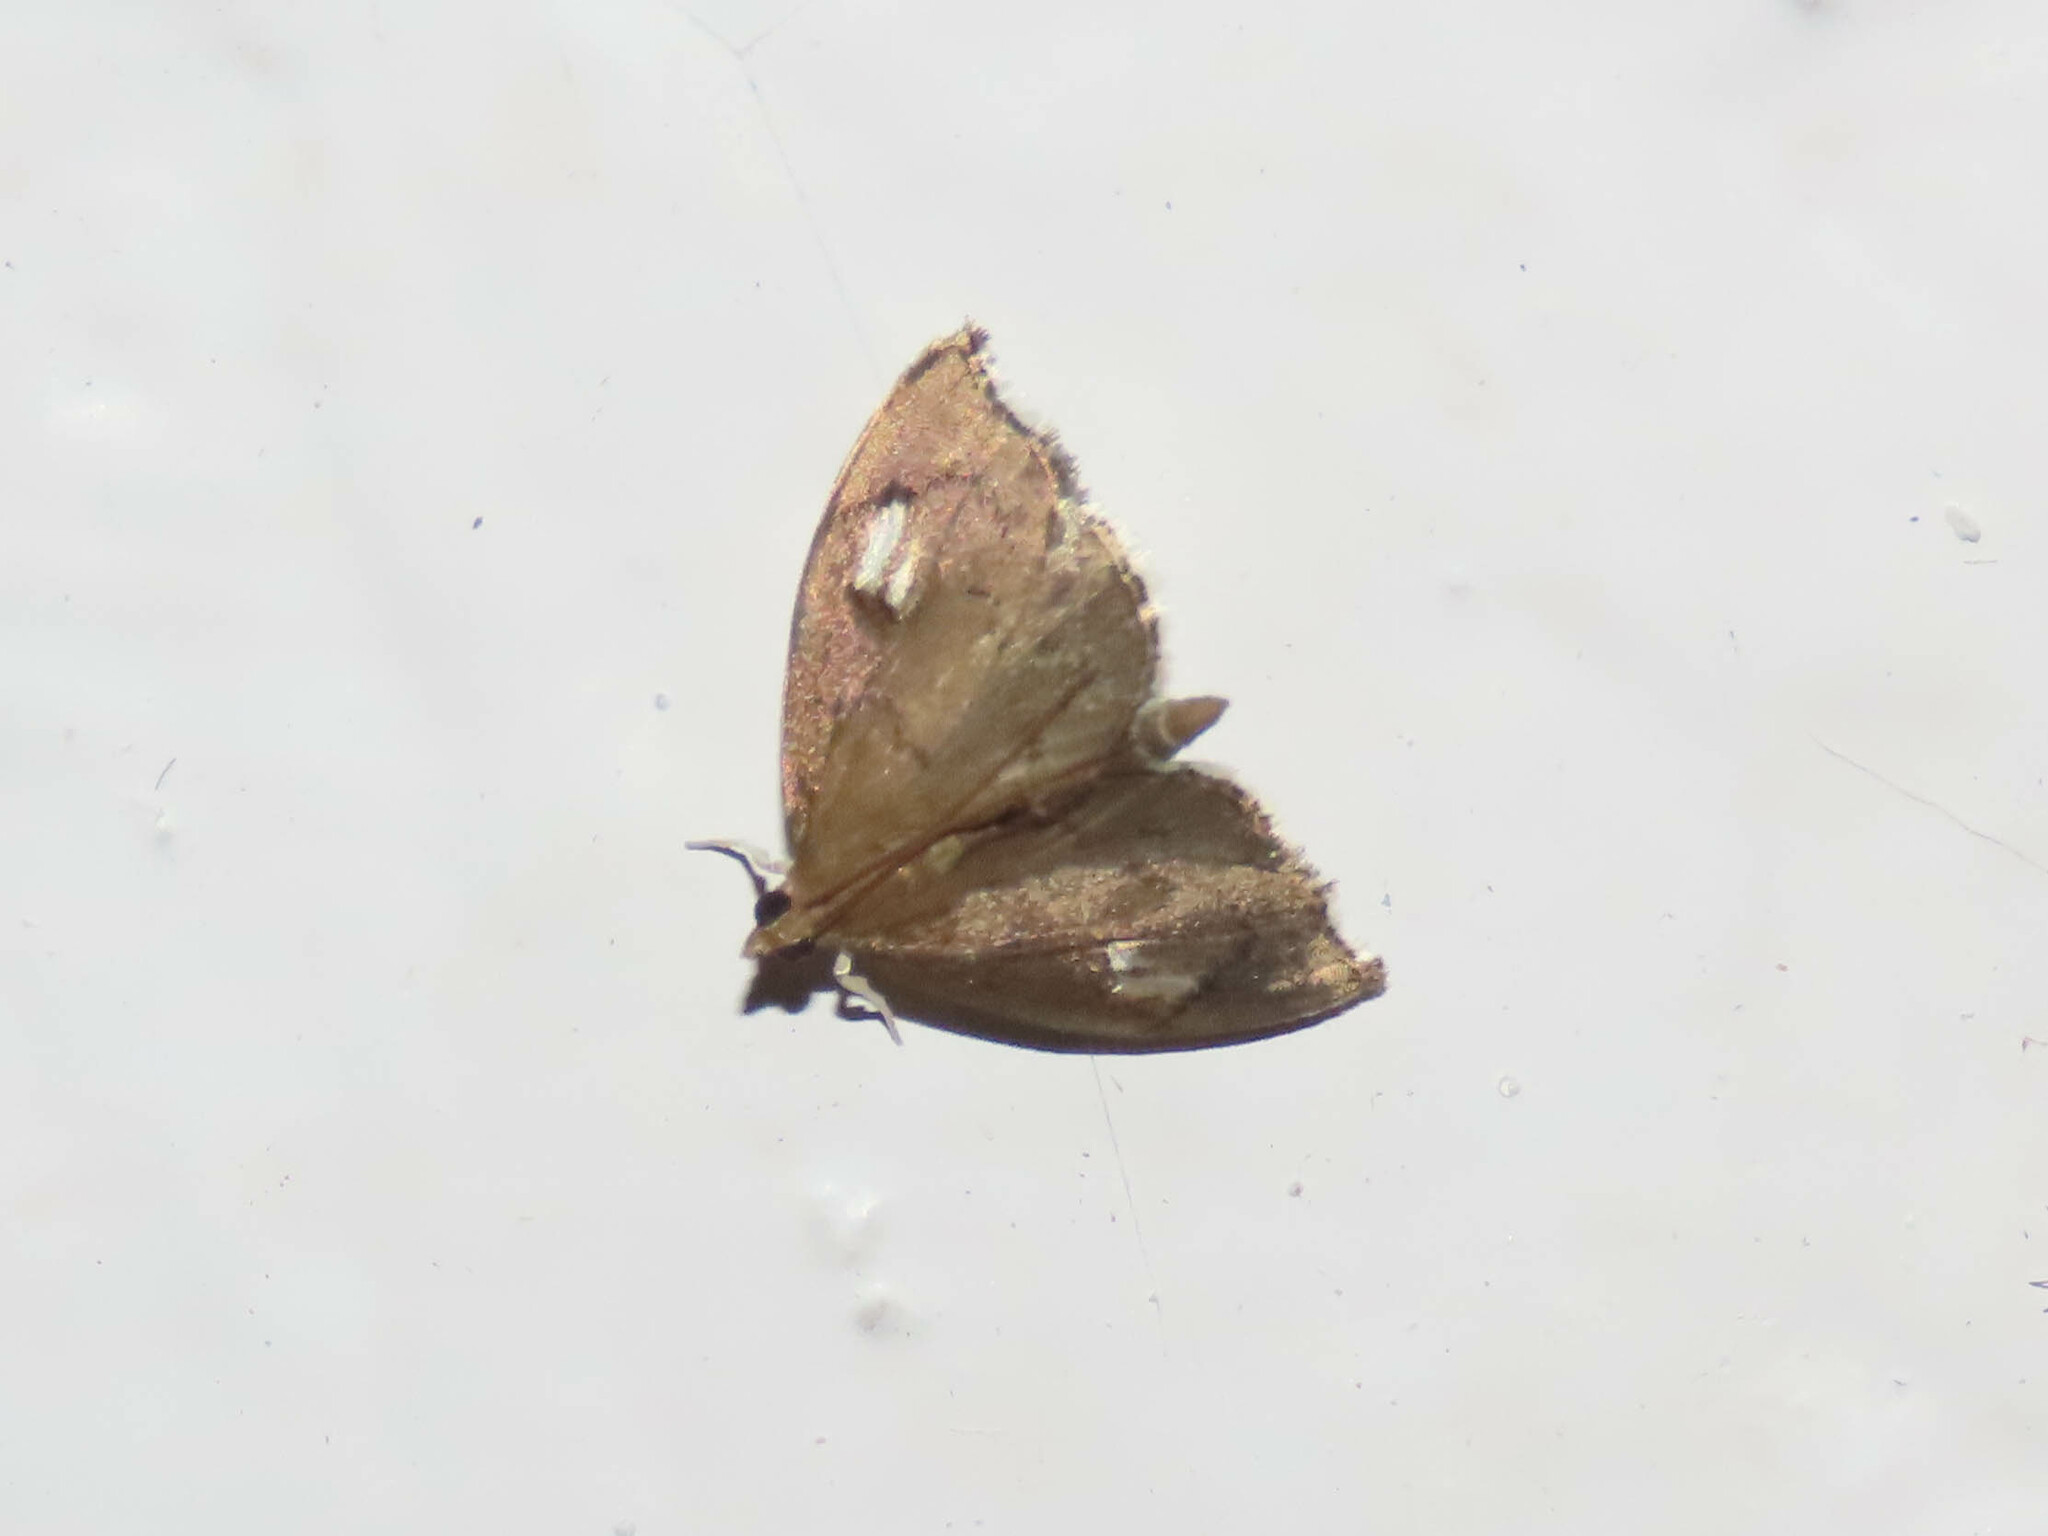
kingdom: Animalia
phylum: Arthropoda
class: Insecta
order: Lepidoptera
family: Crambidae
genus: Perispasta
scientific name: Perispasta caeculalis
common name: Titian peale's moth
